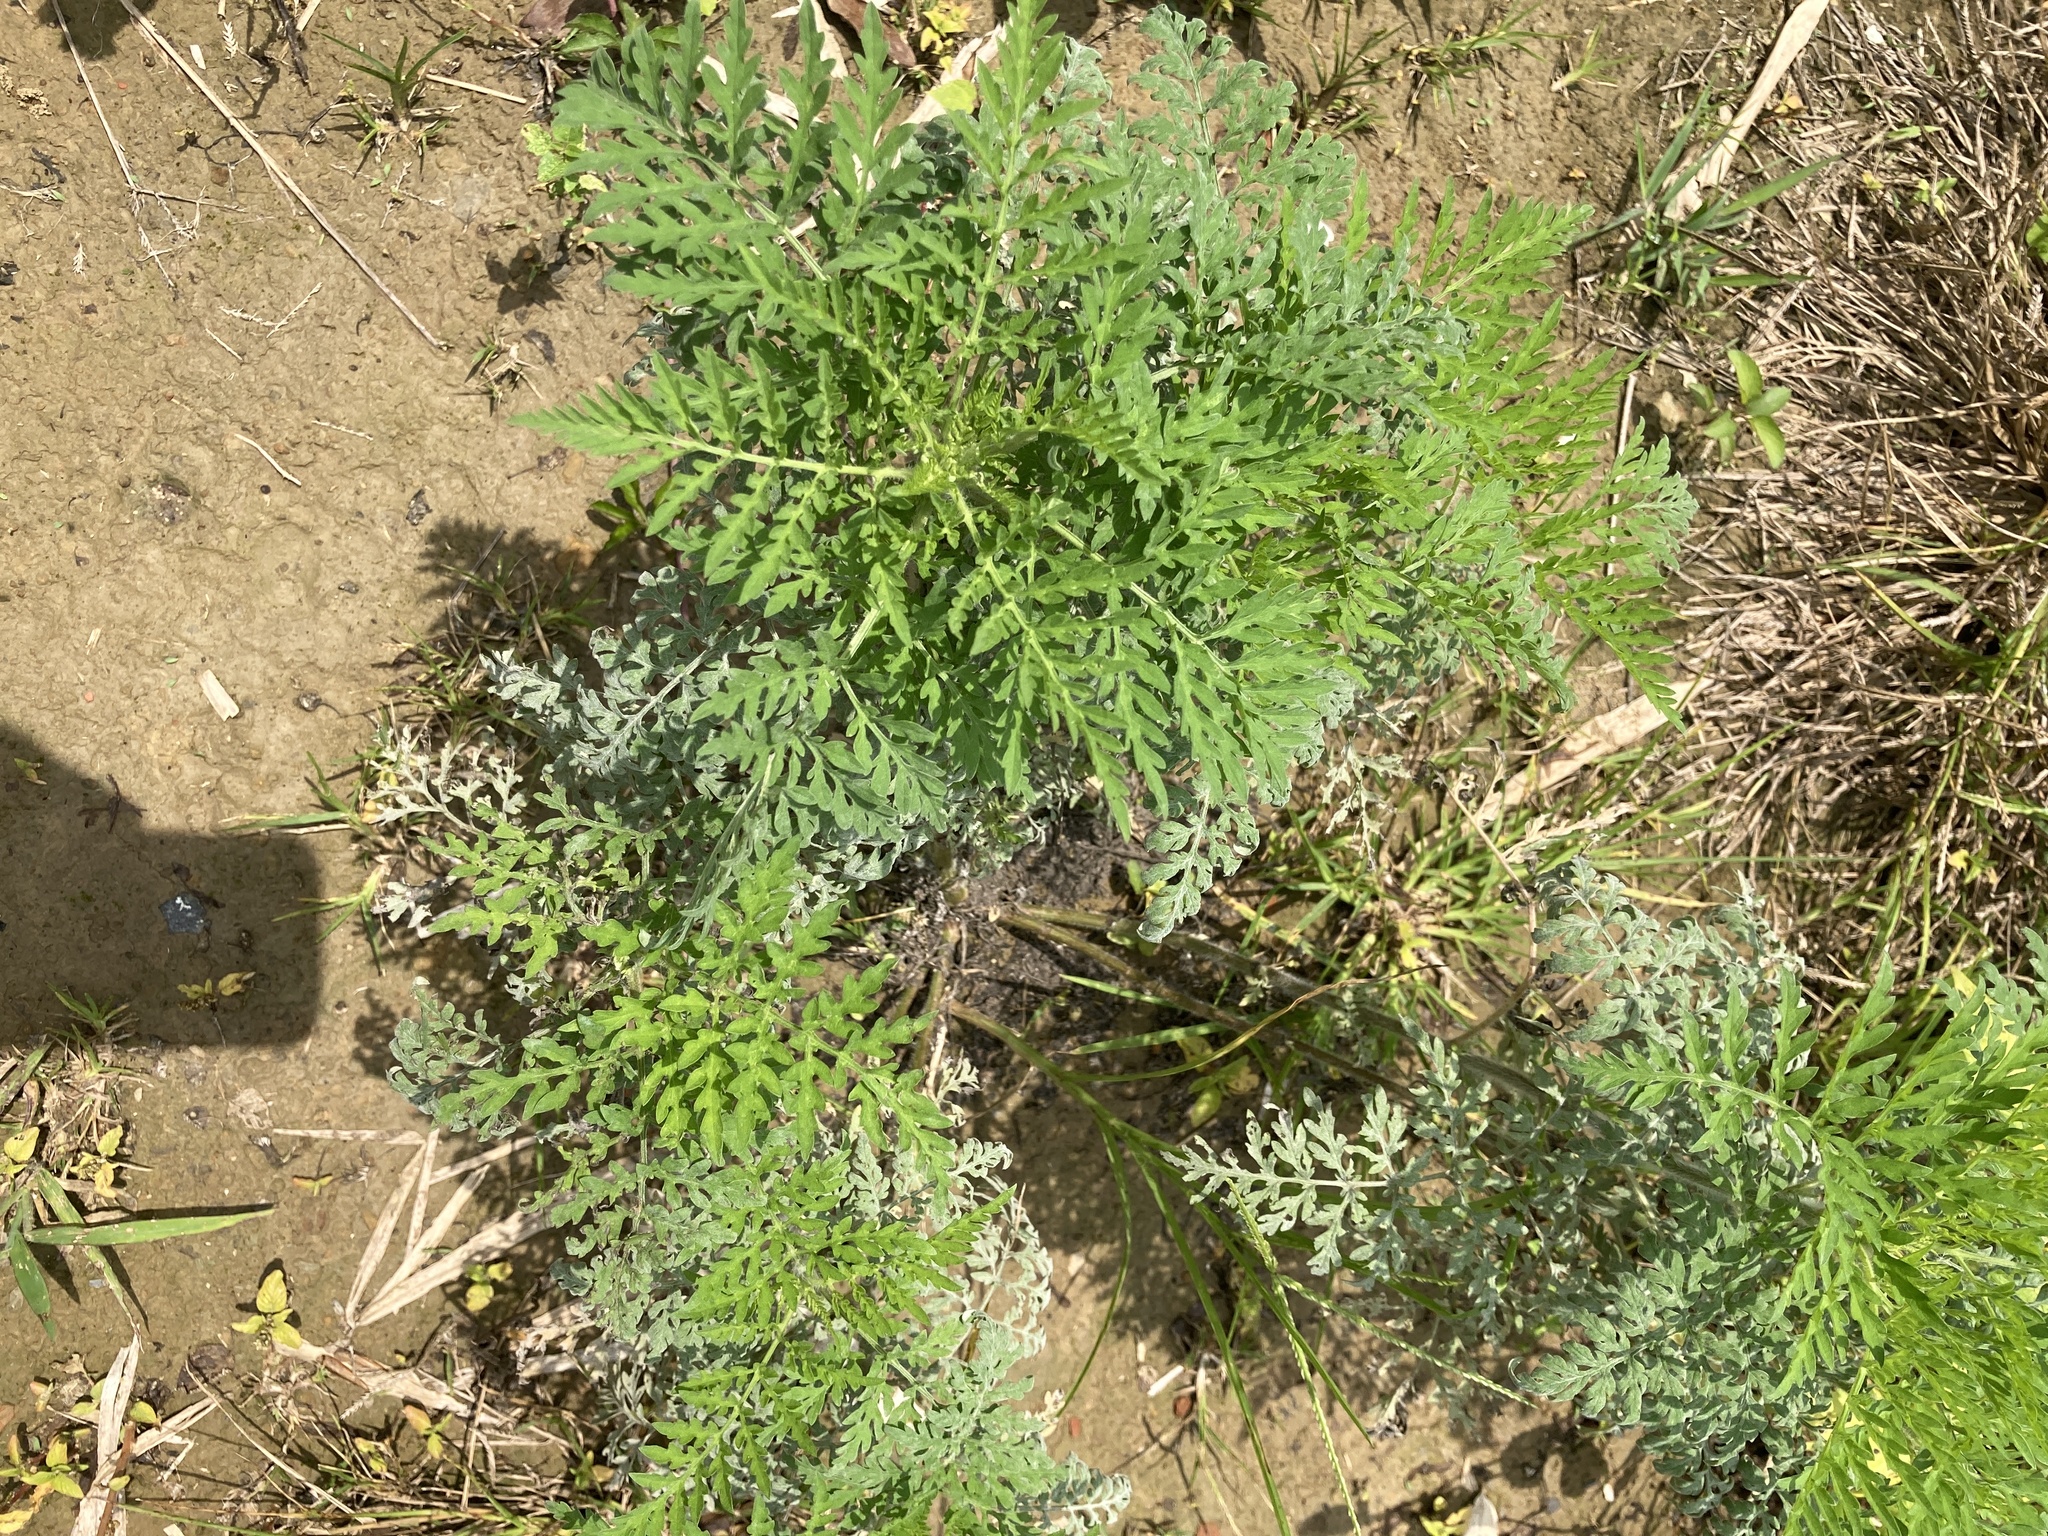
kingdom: Plantae
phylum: Tracheophyta
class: Magnoliopsida
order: Asterales
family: Asteraceae
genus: Ambrosia
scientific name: Ambrosia artemisiifolia
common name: Annual ragweed
